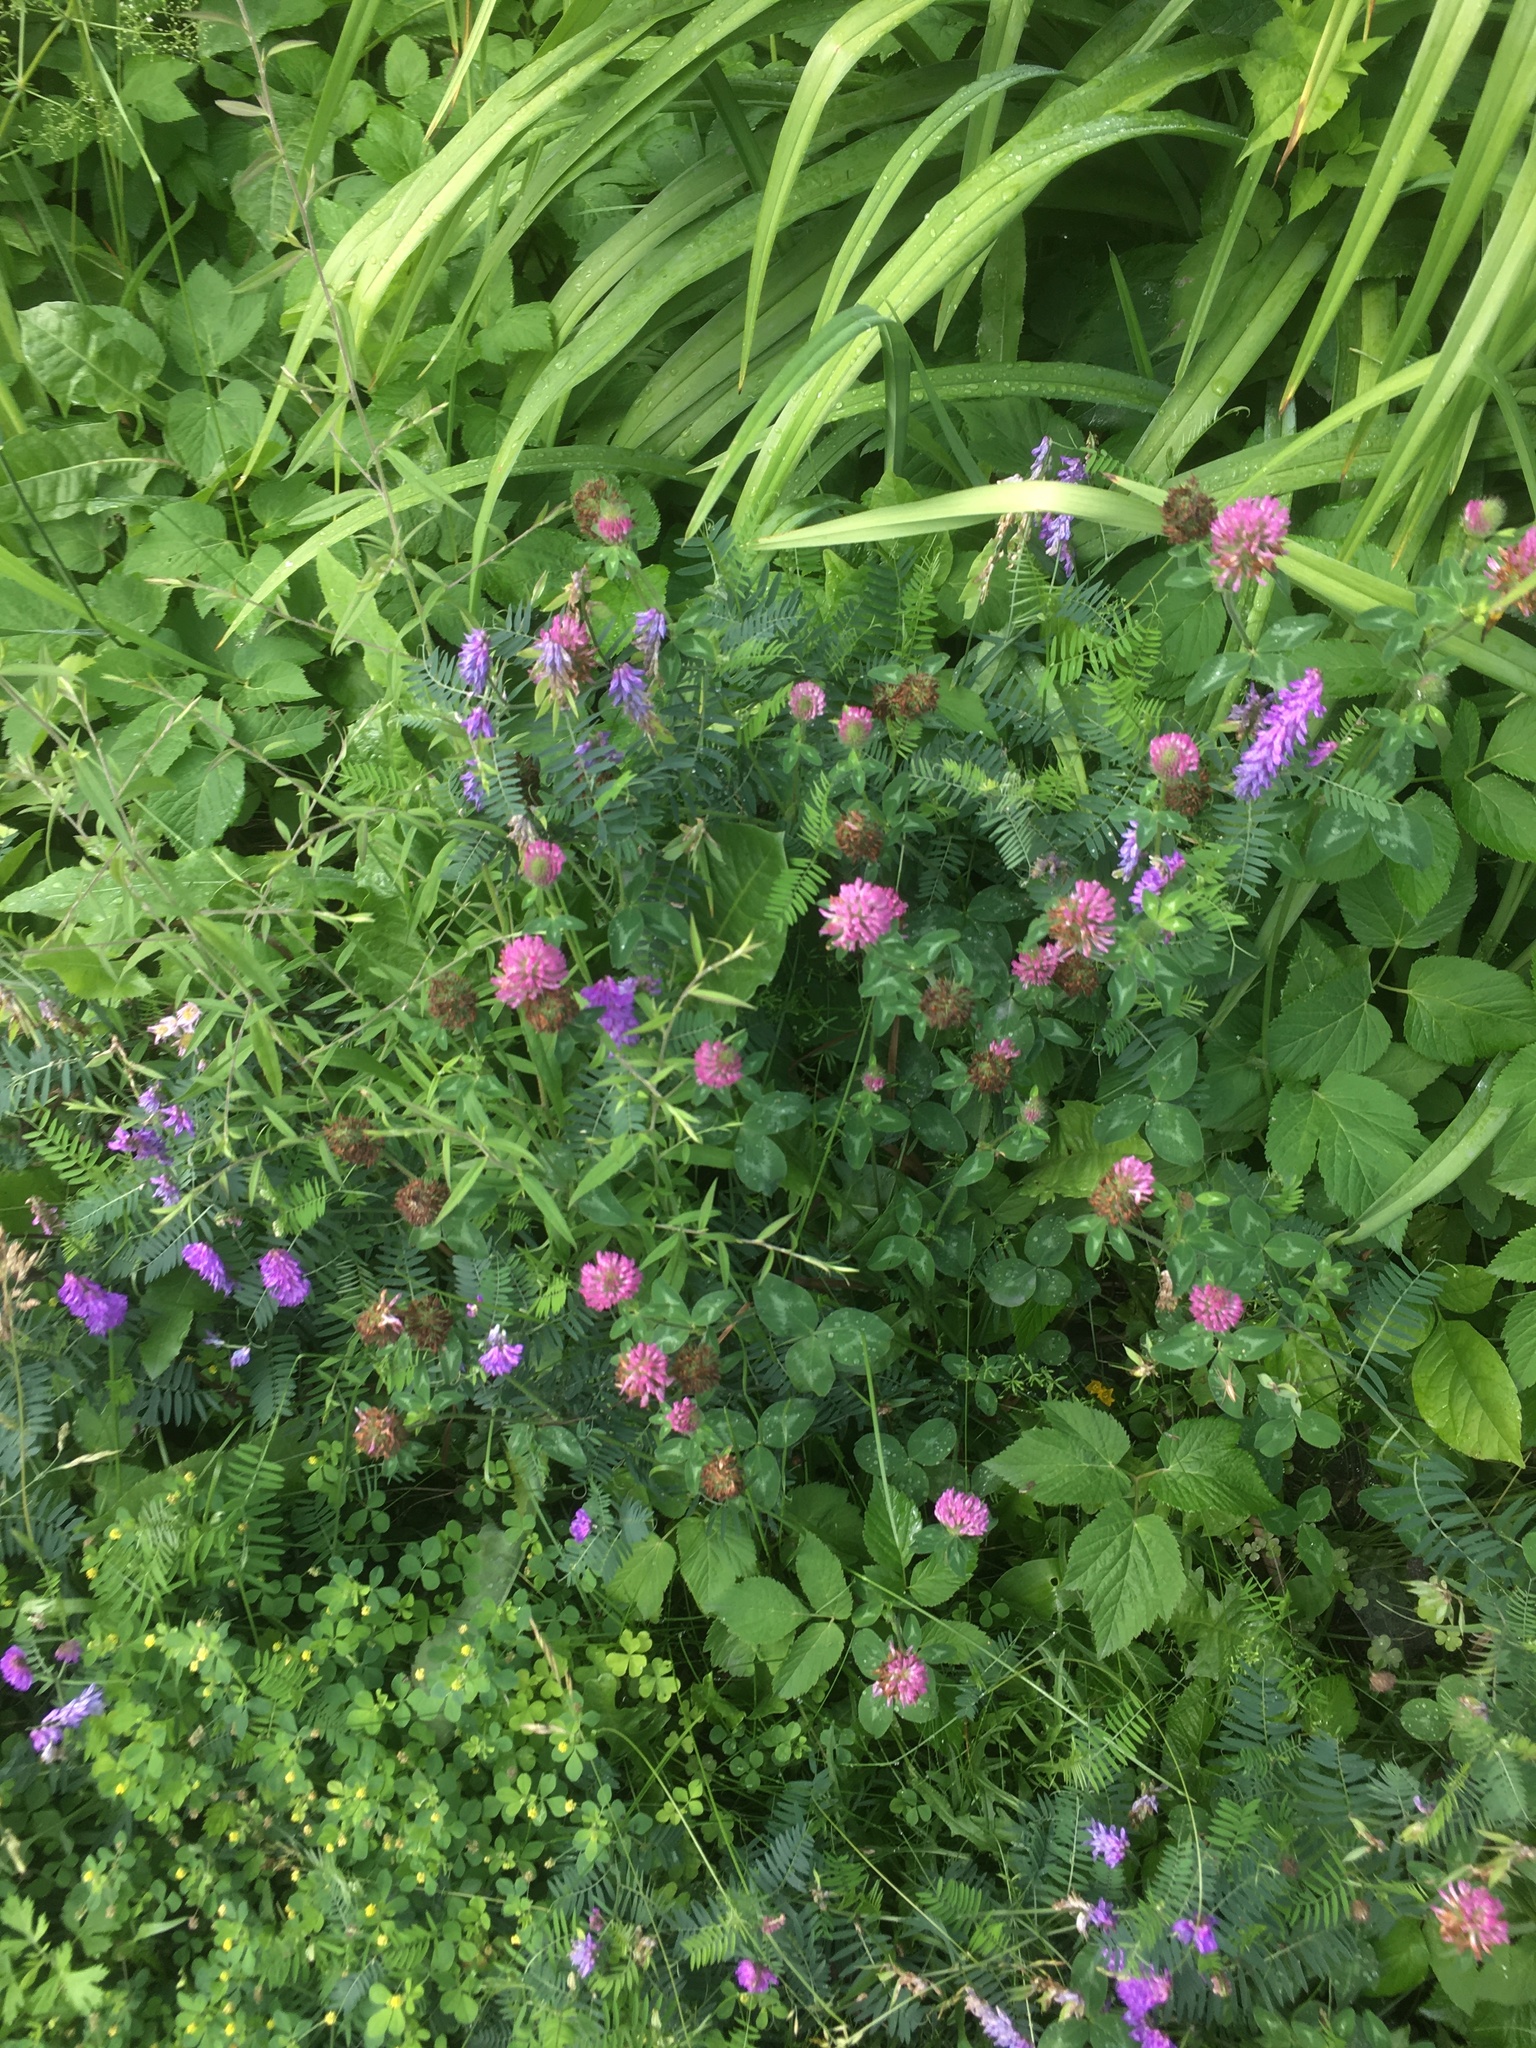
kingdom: Plantae
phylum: Tracheophyta
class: Magnoliopsida
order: Fabales
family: Fabaceae
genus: Trifolium
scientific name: Trifolium pratense
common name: Red clover
